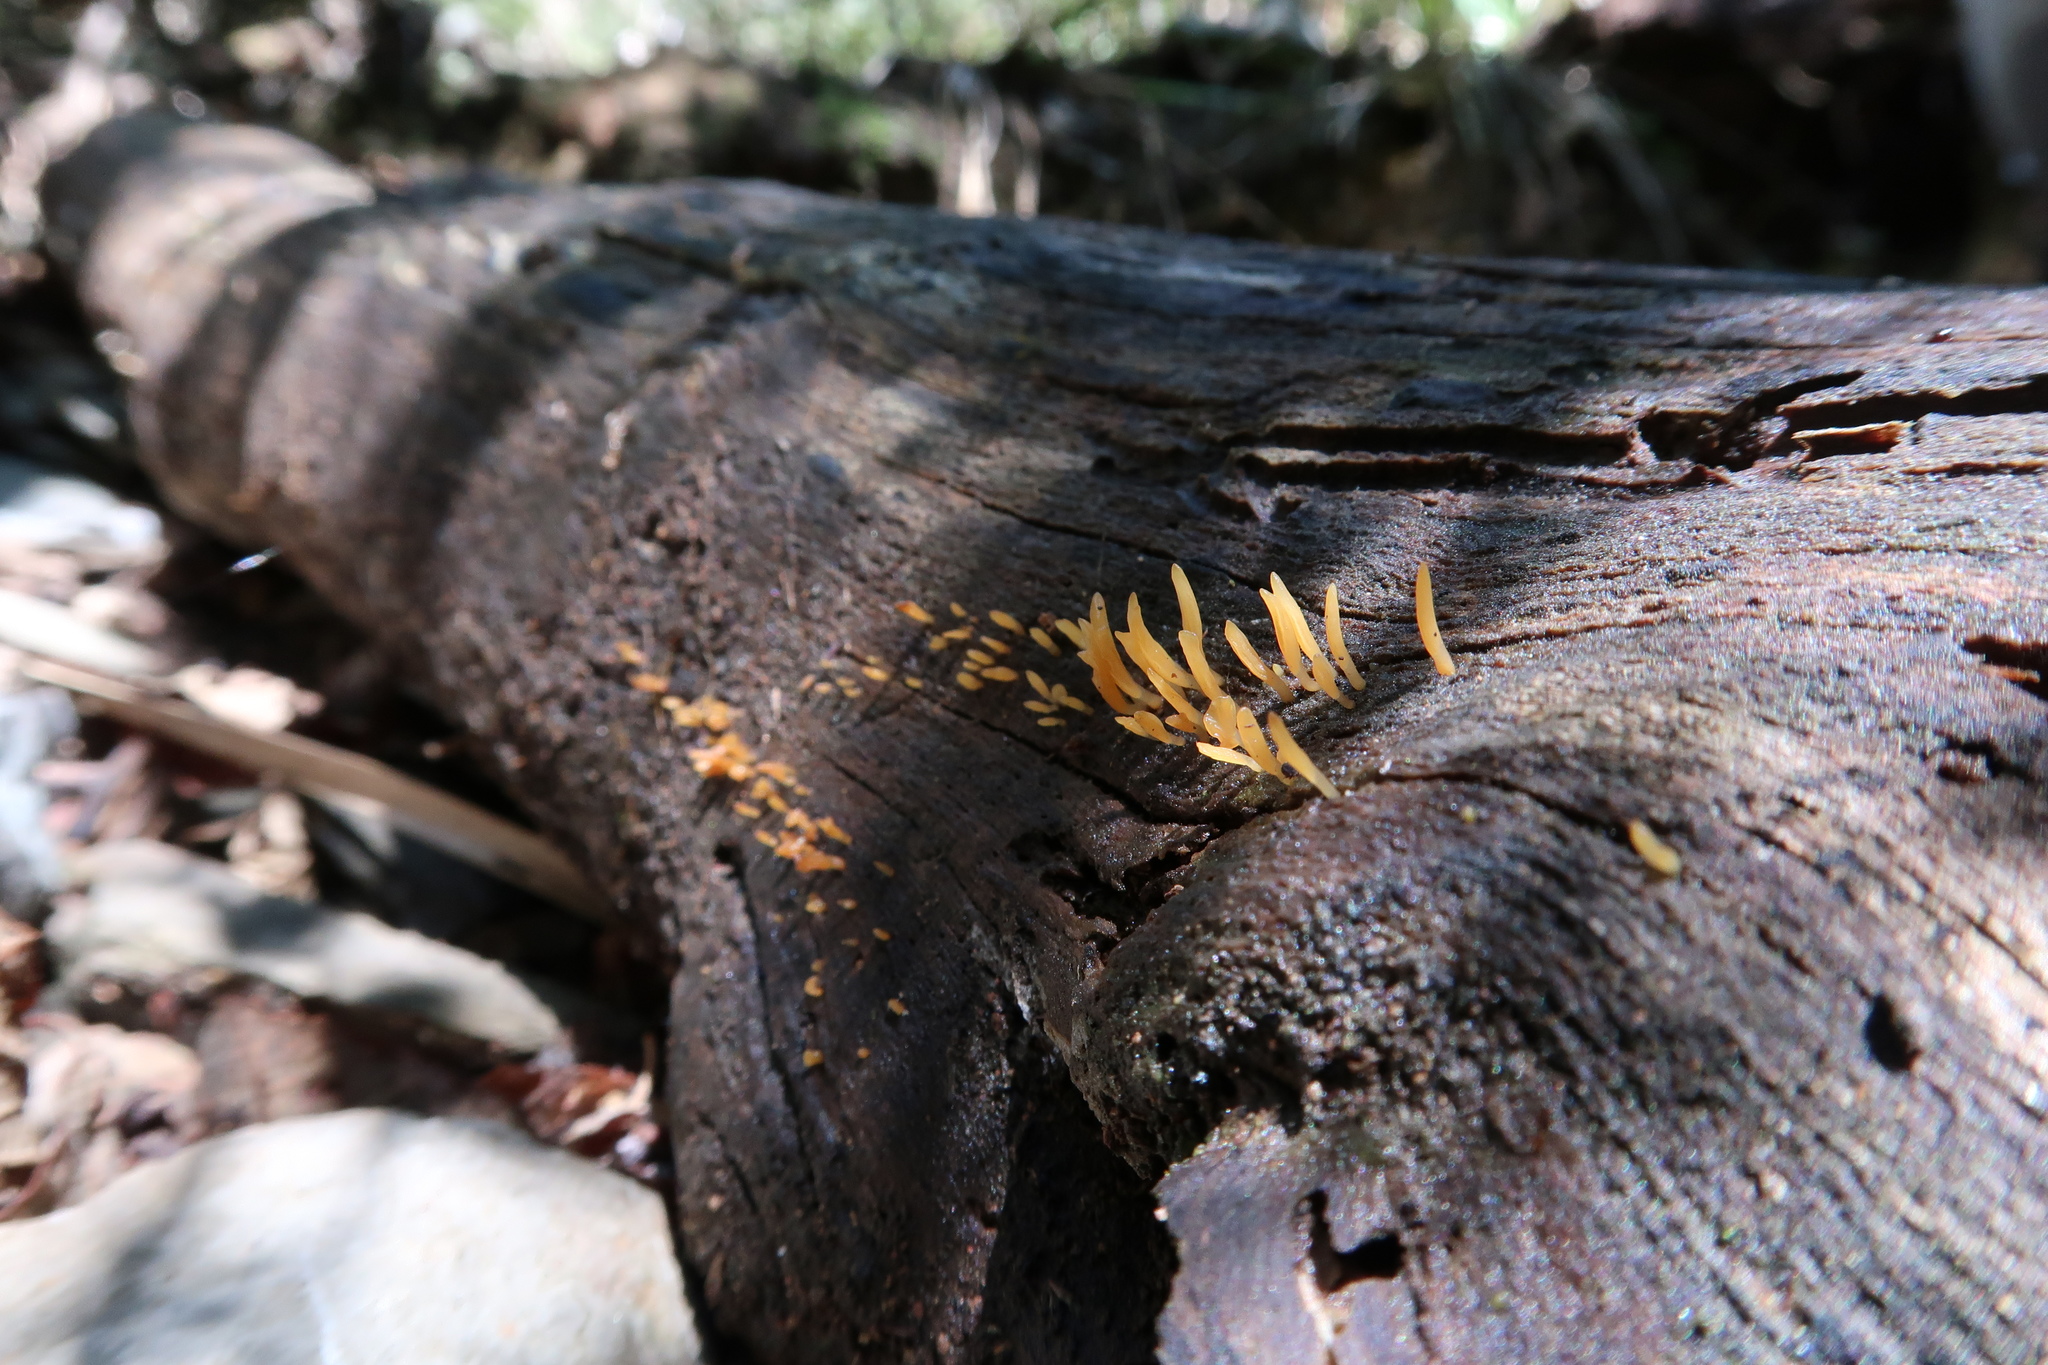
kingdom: Fungi
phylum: Basidiomycota
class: Dacrymycetes
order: Dacrymycetales
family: Dacrymycetaceae
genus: Calocera
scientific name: Calocera guepinioides
